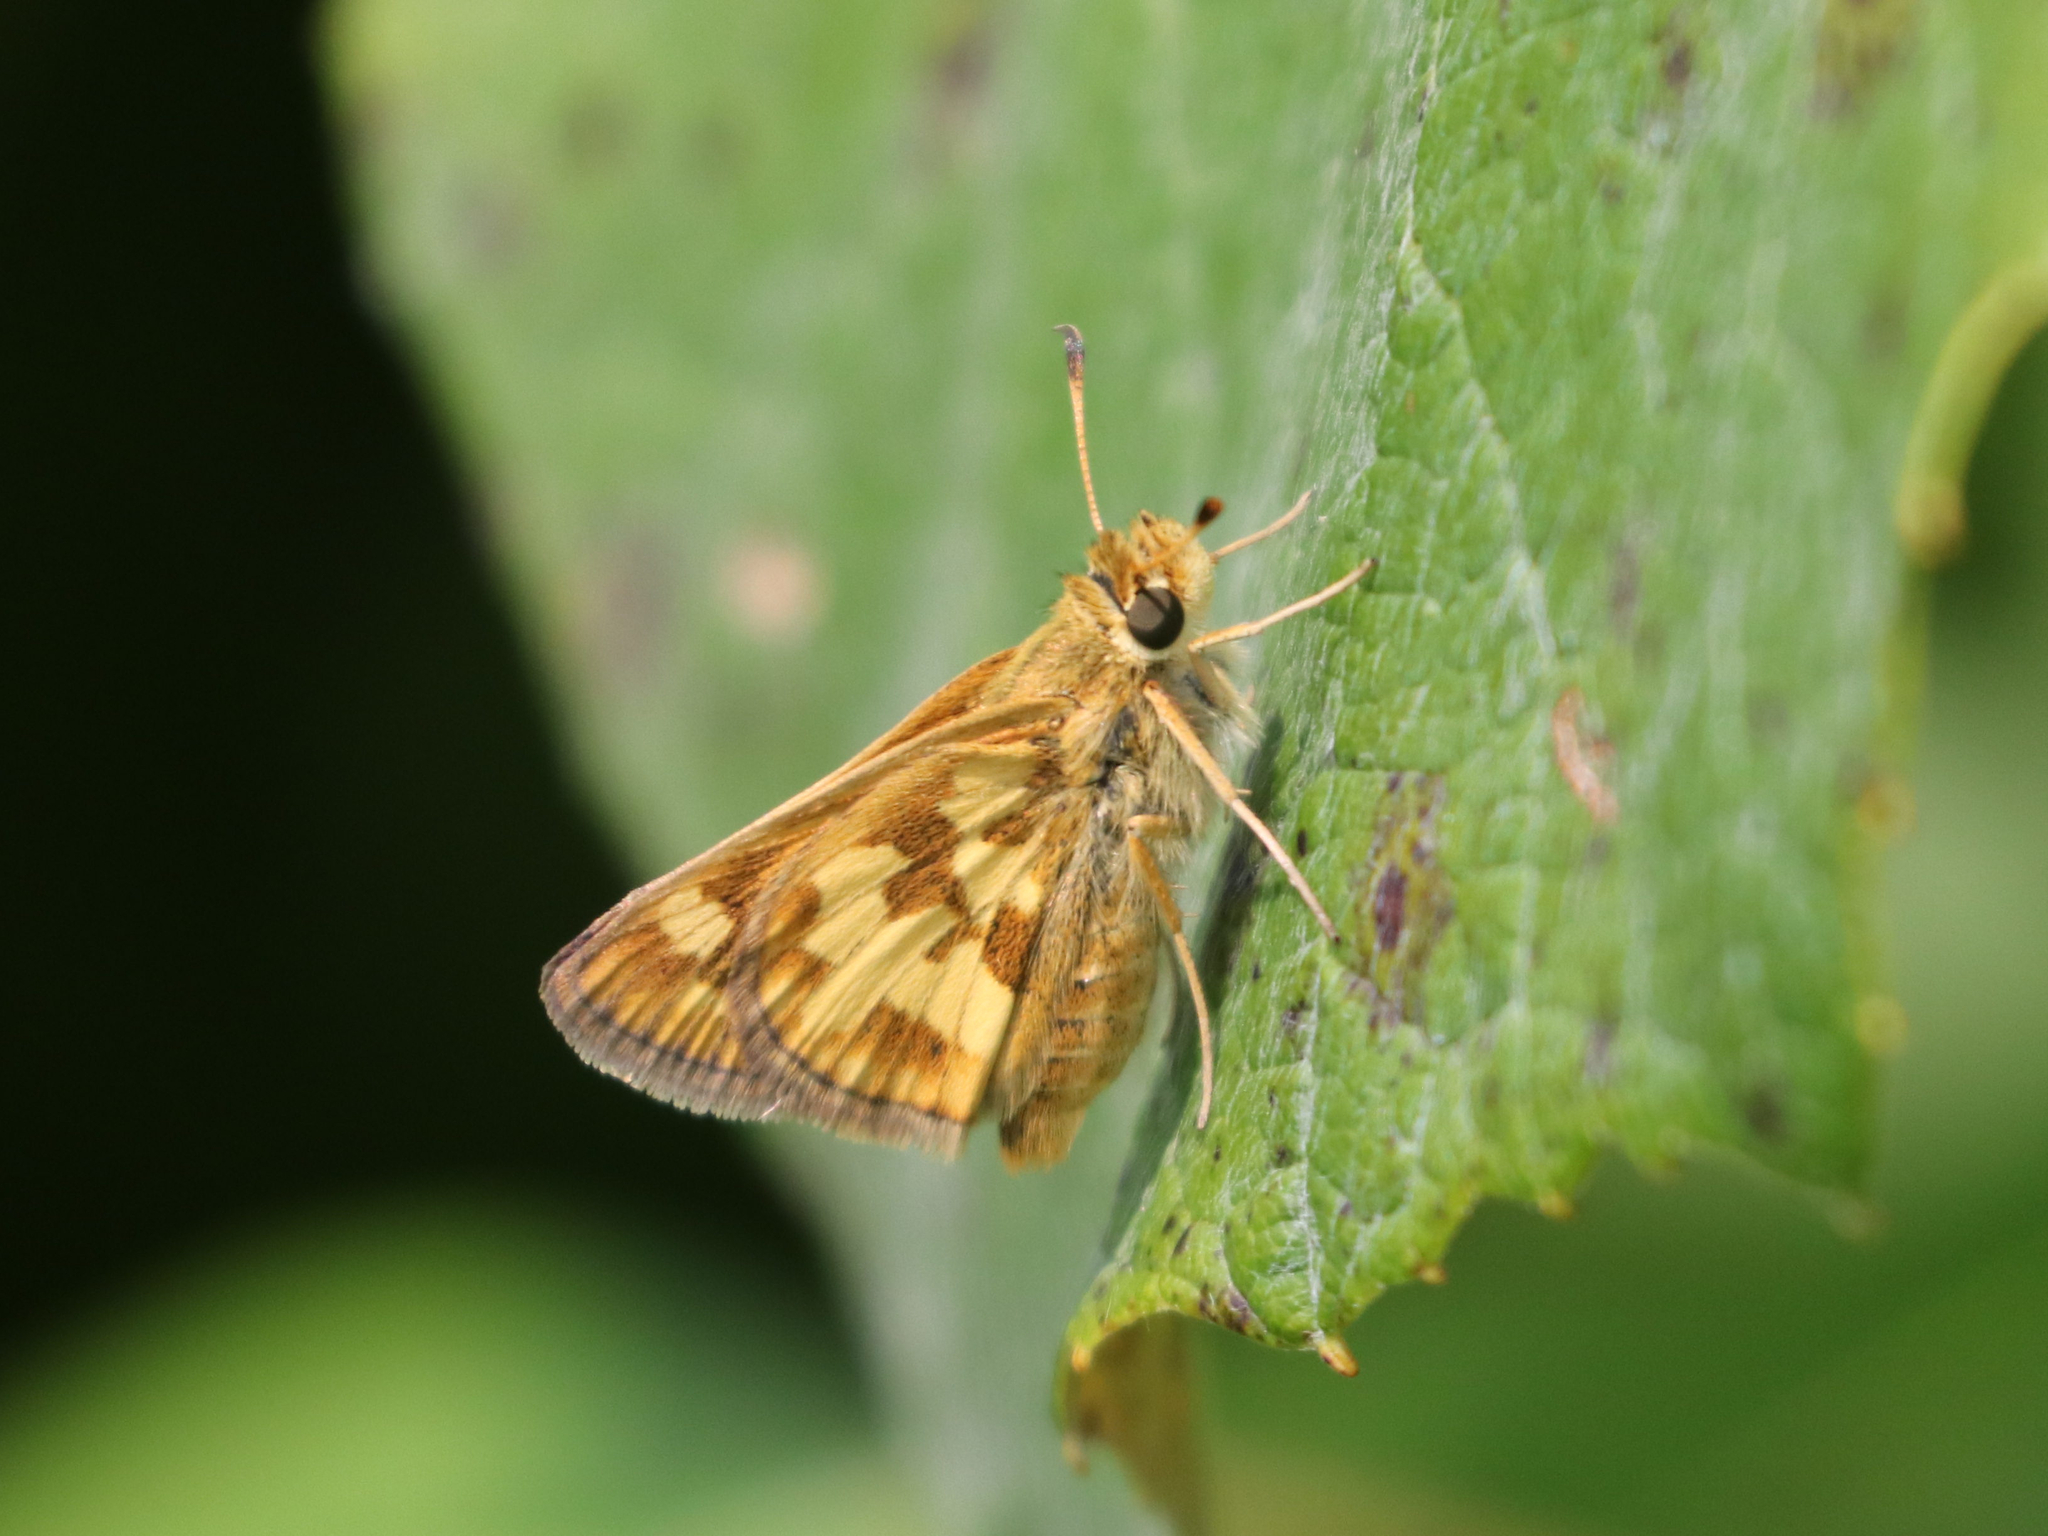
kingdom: Animalia
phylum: Arthropoda
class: Insecta
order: Lepidoptera
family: Hesperiidae
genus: Polites
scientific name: Polites coras
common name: Peck's skipper
